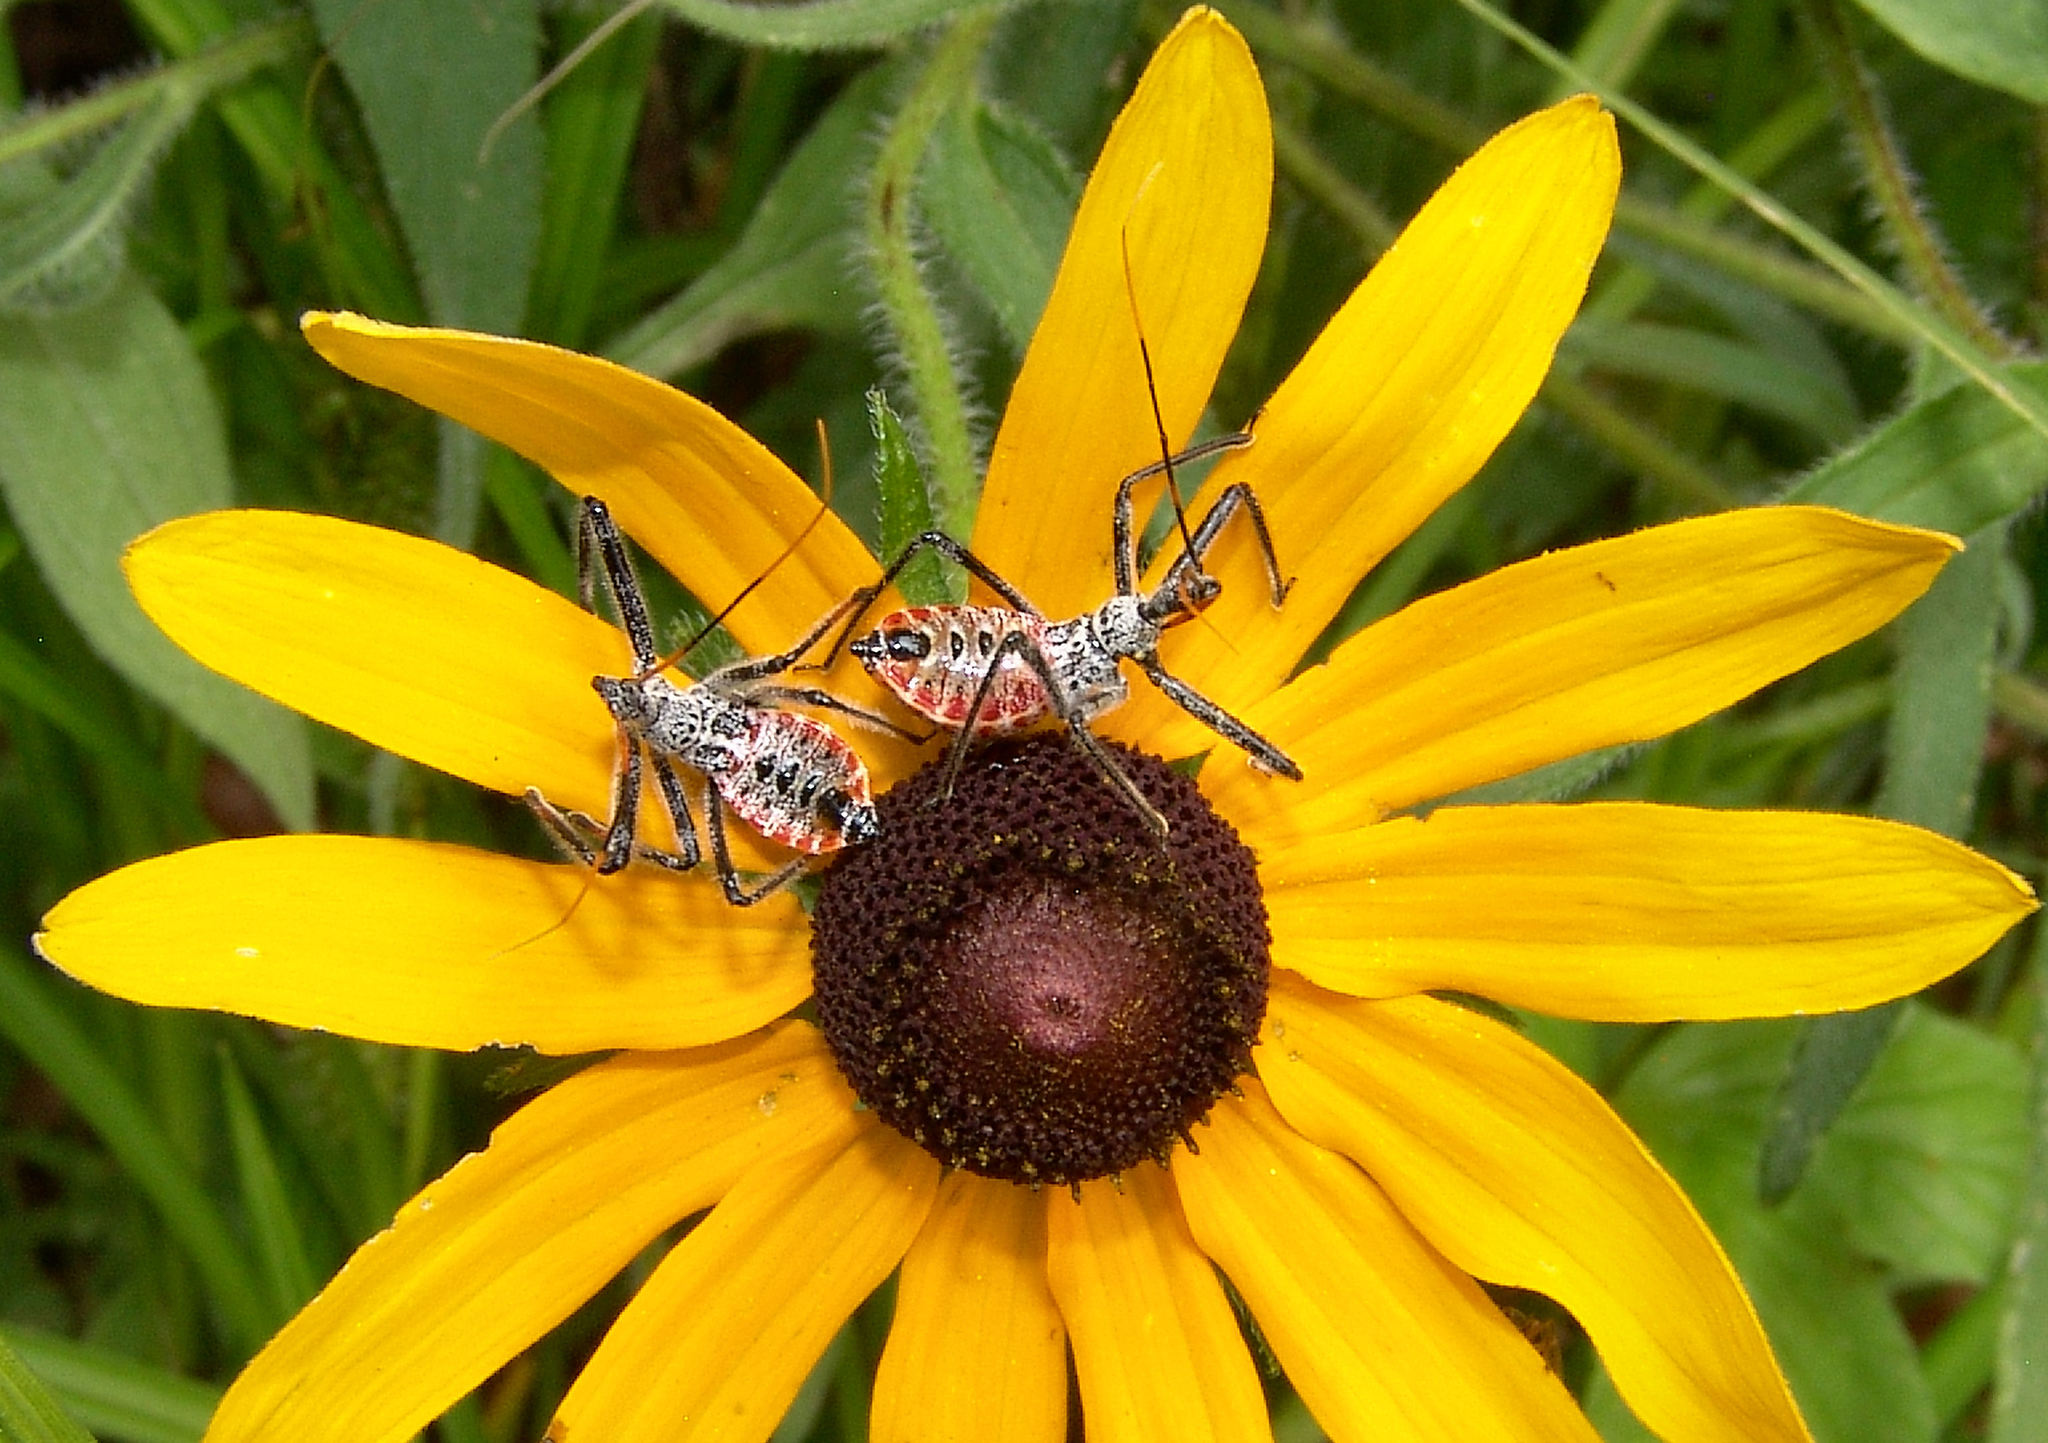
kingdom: Animalia
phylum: Arthropoda
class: Insecta
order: Hemiptera
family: Reduviidae
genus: Arilus
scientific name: Arilus cristatus
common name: North american wheel bug
